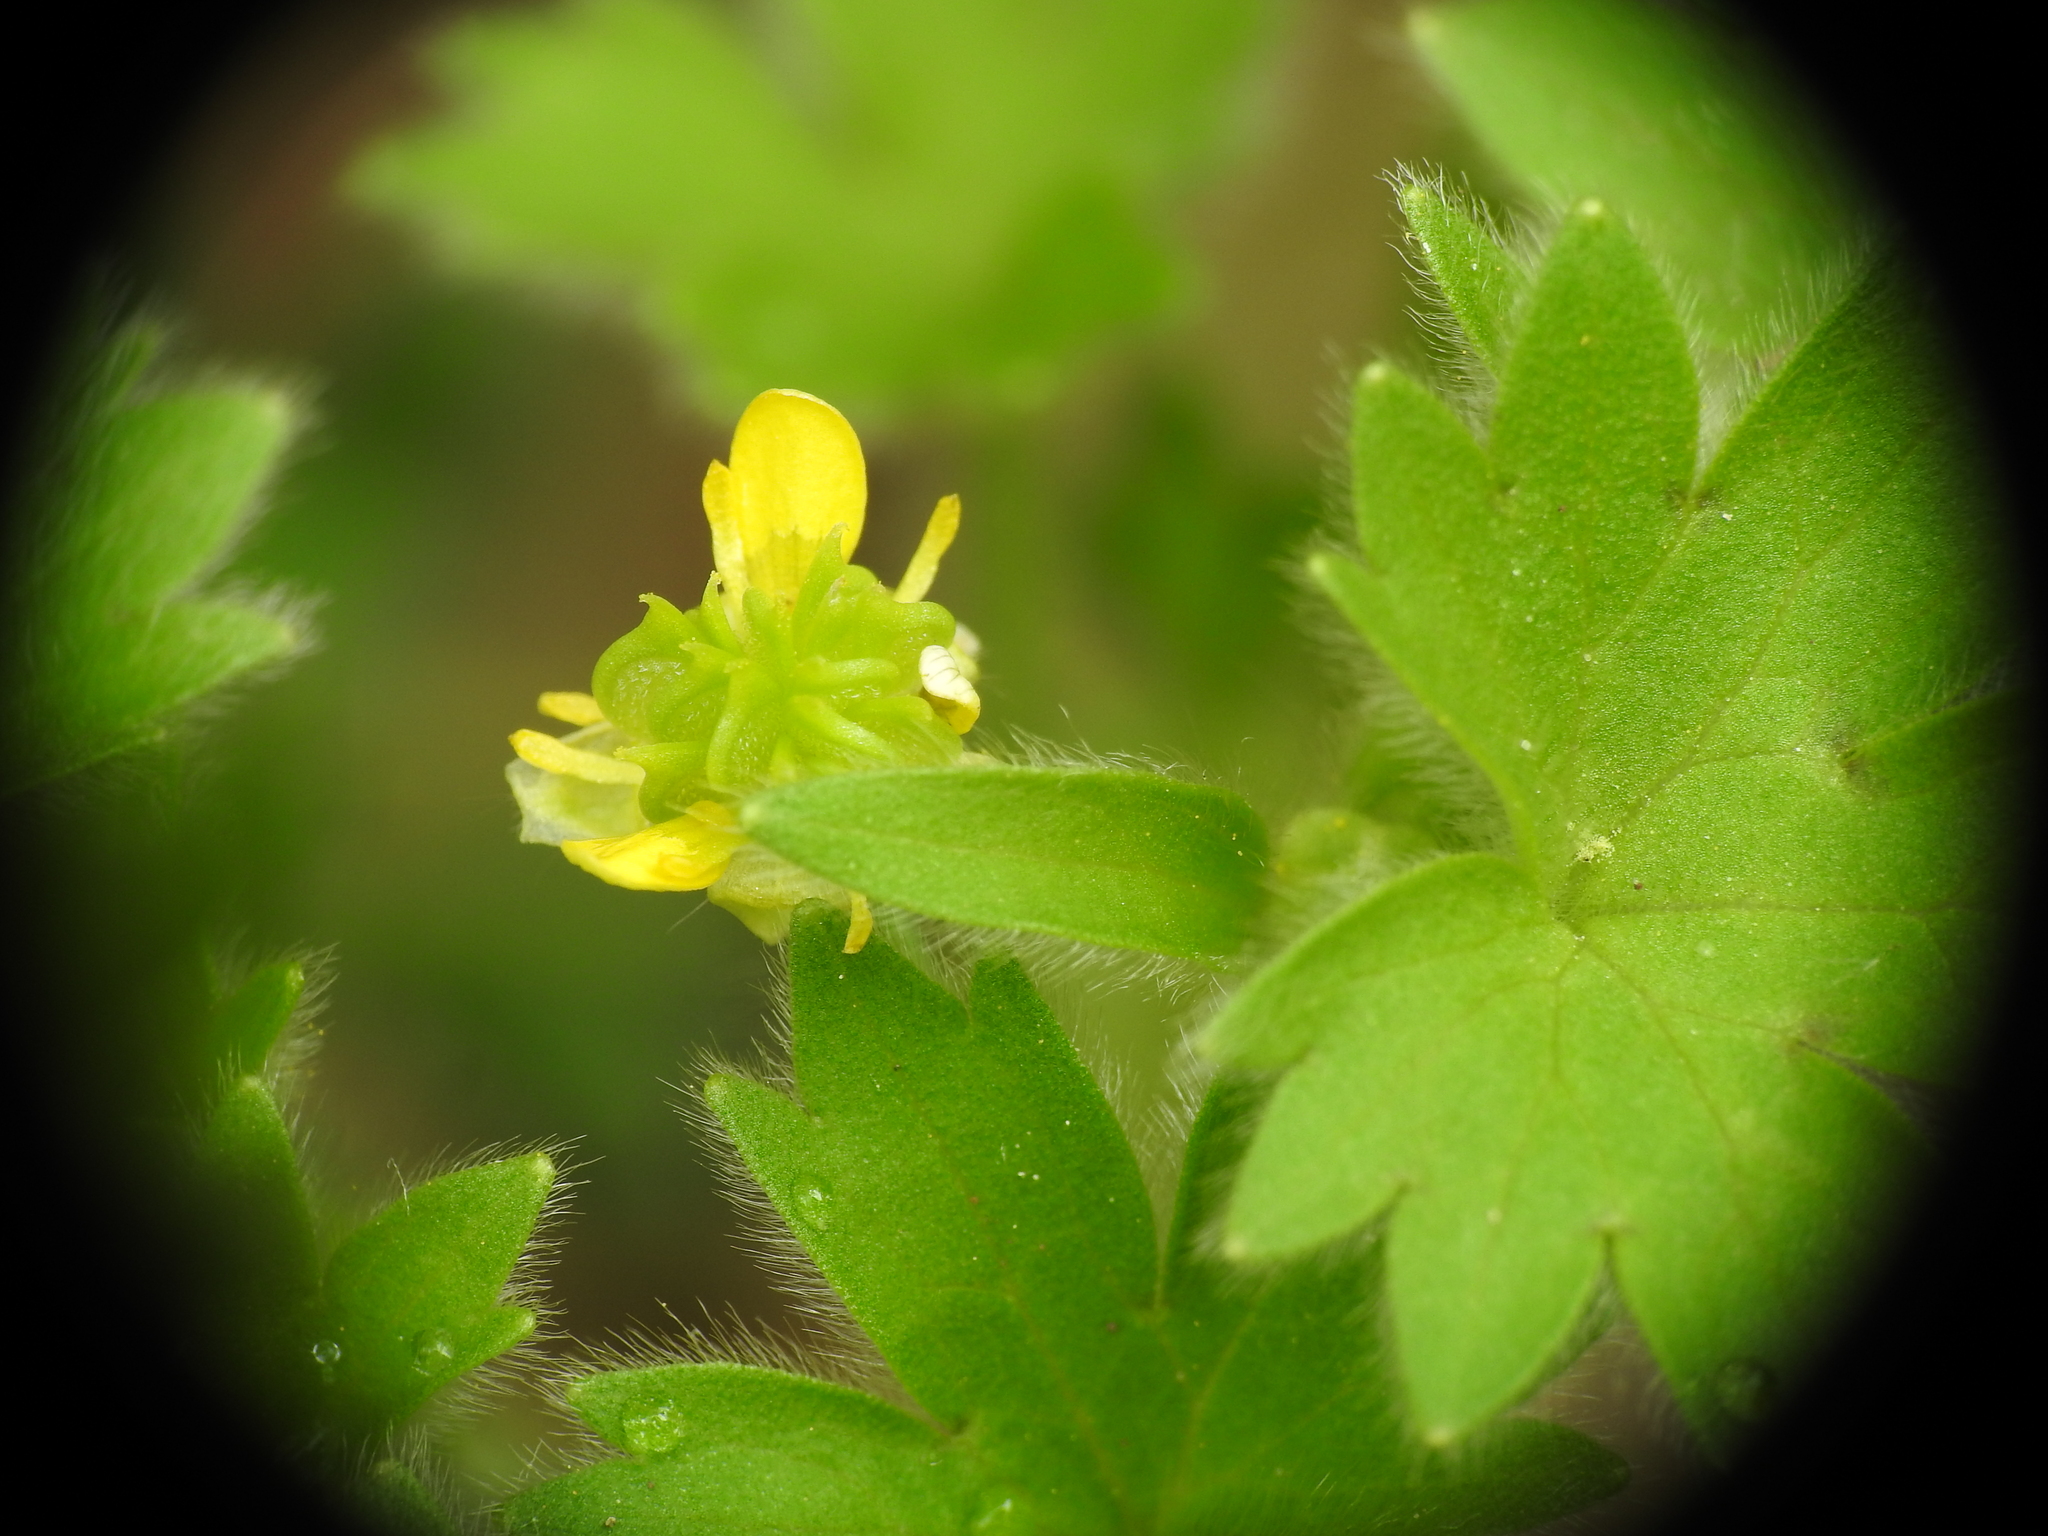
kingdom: Plantae
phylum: Tracheophyta
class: Magnoliopsida
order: Ranunculales
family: Ranunculaceae
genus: Ranunculus
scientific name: Ranunculus parviflorus
